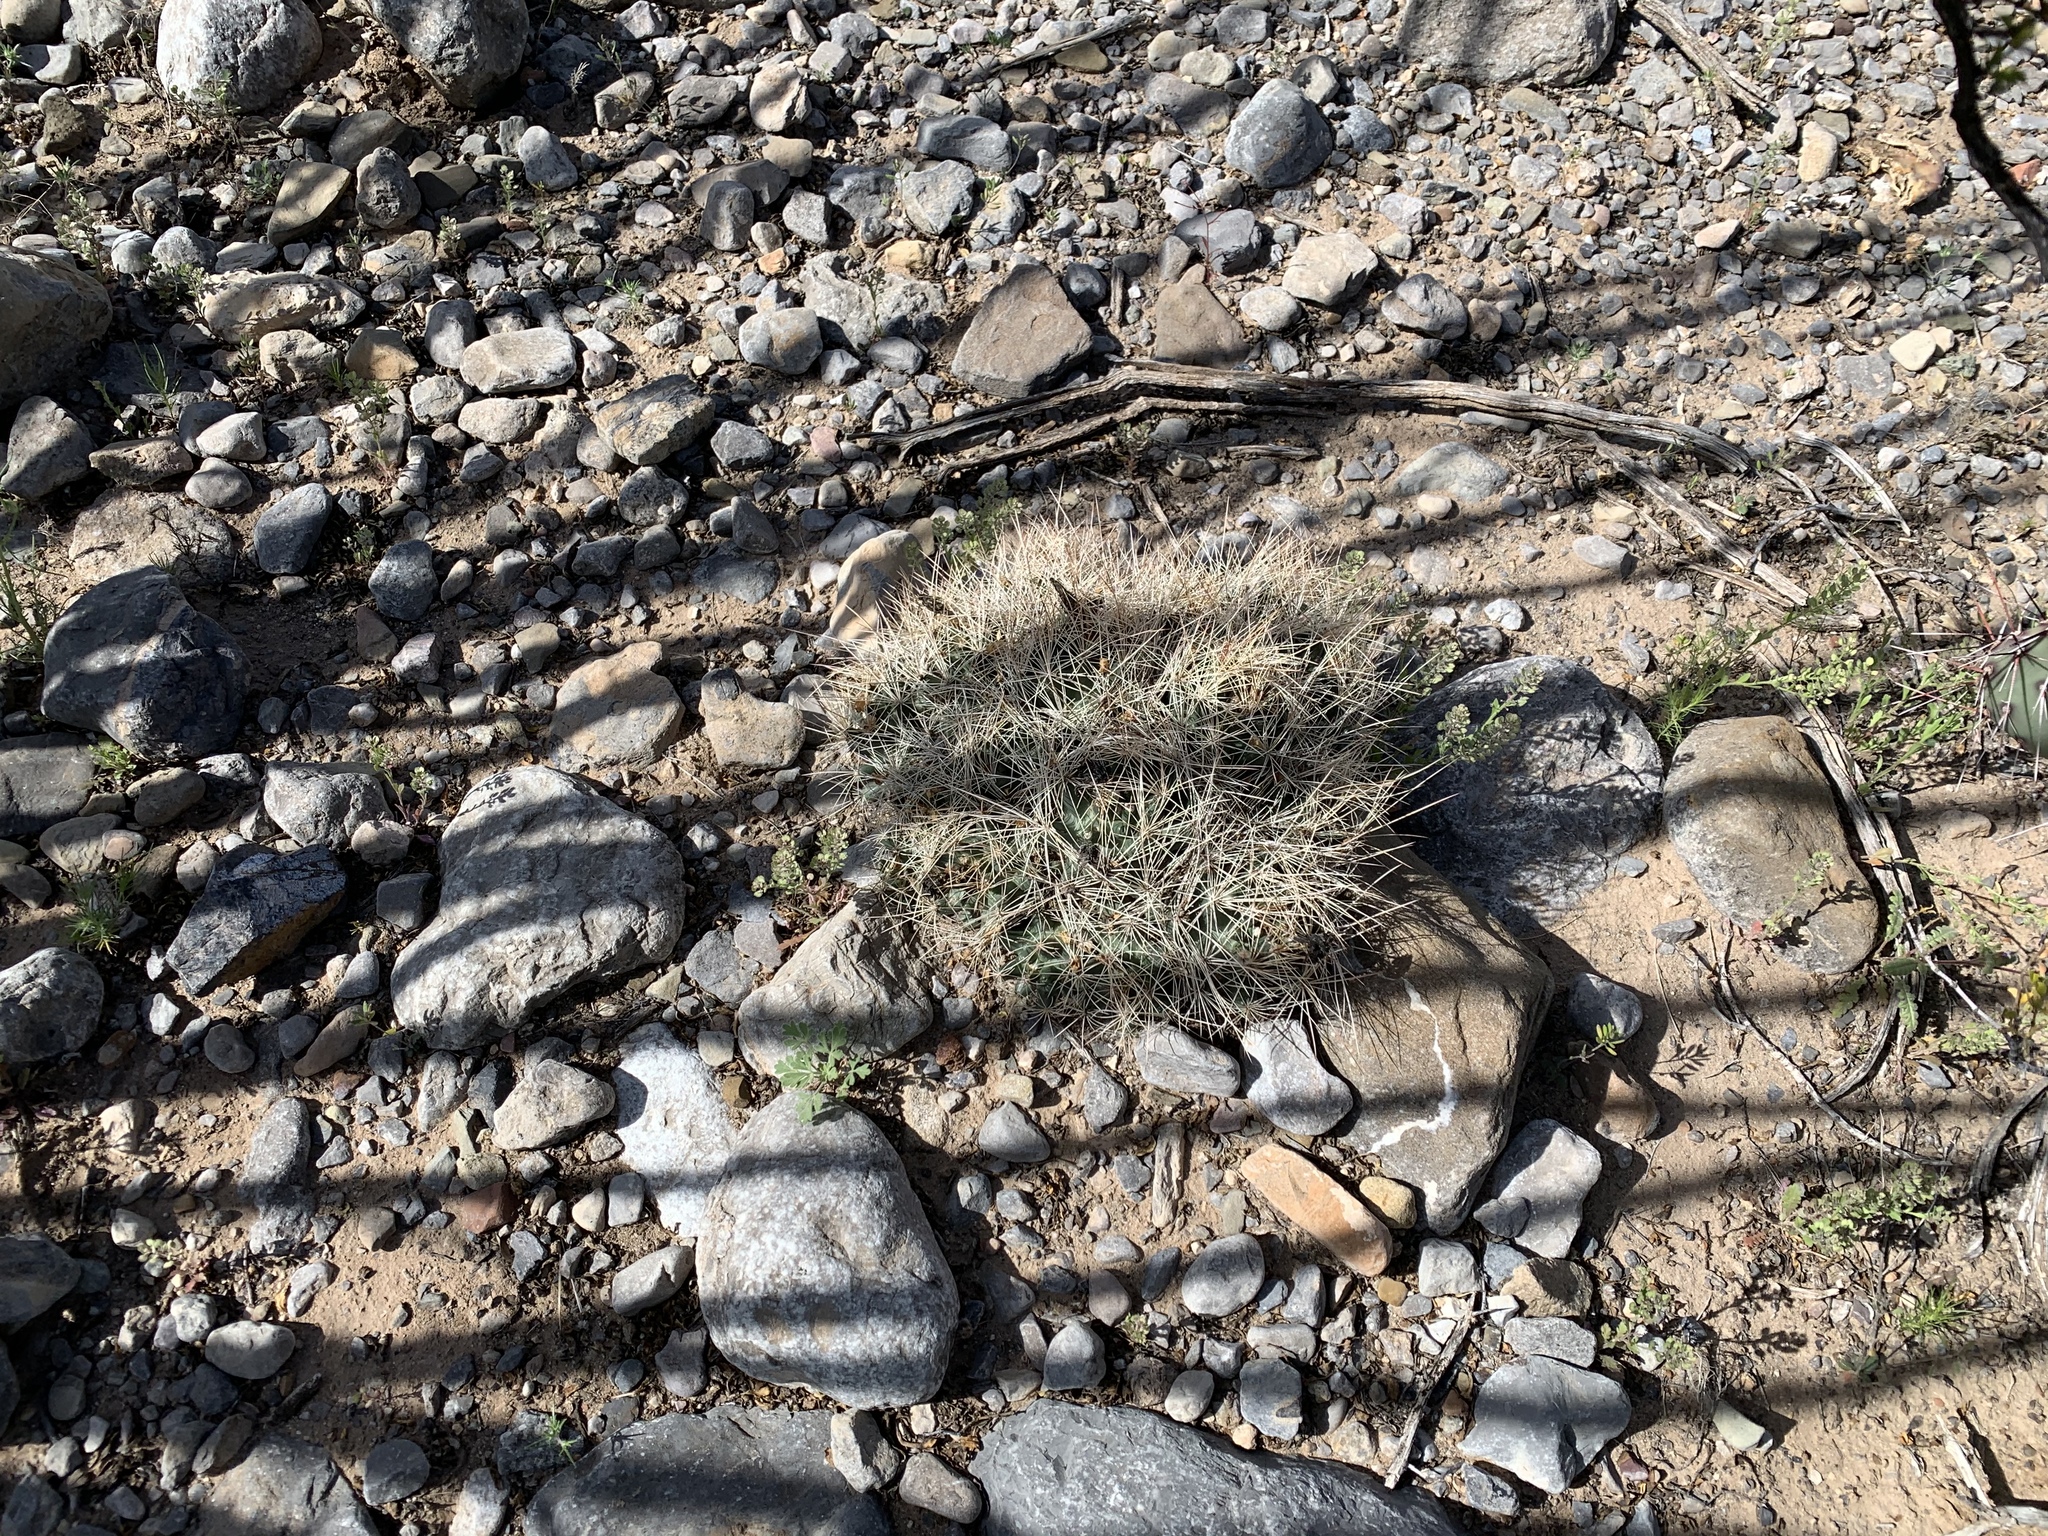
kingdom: Plantae
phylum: Tracheophyta
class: Magnoliopsida
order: Caryophyllales
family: Cactaceae
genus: Coryphantha
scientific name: Coryphantha macromeris
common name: Nipple beehive cactus
